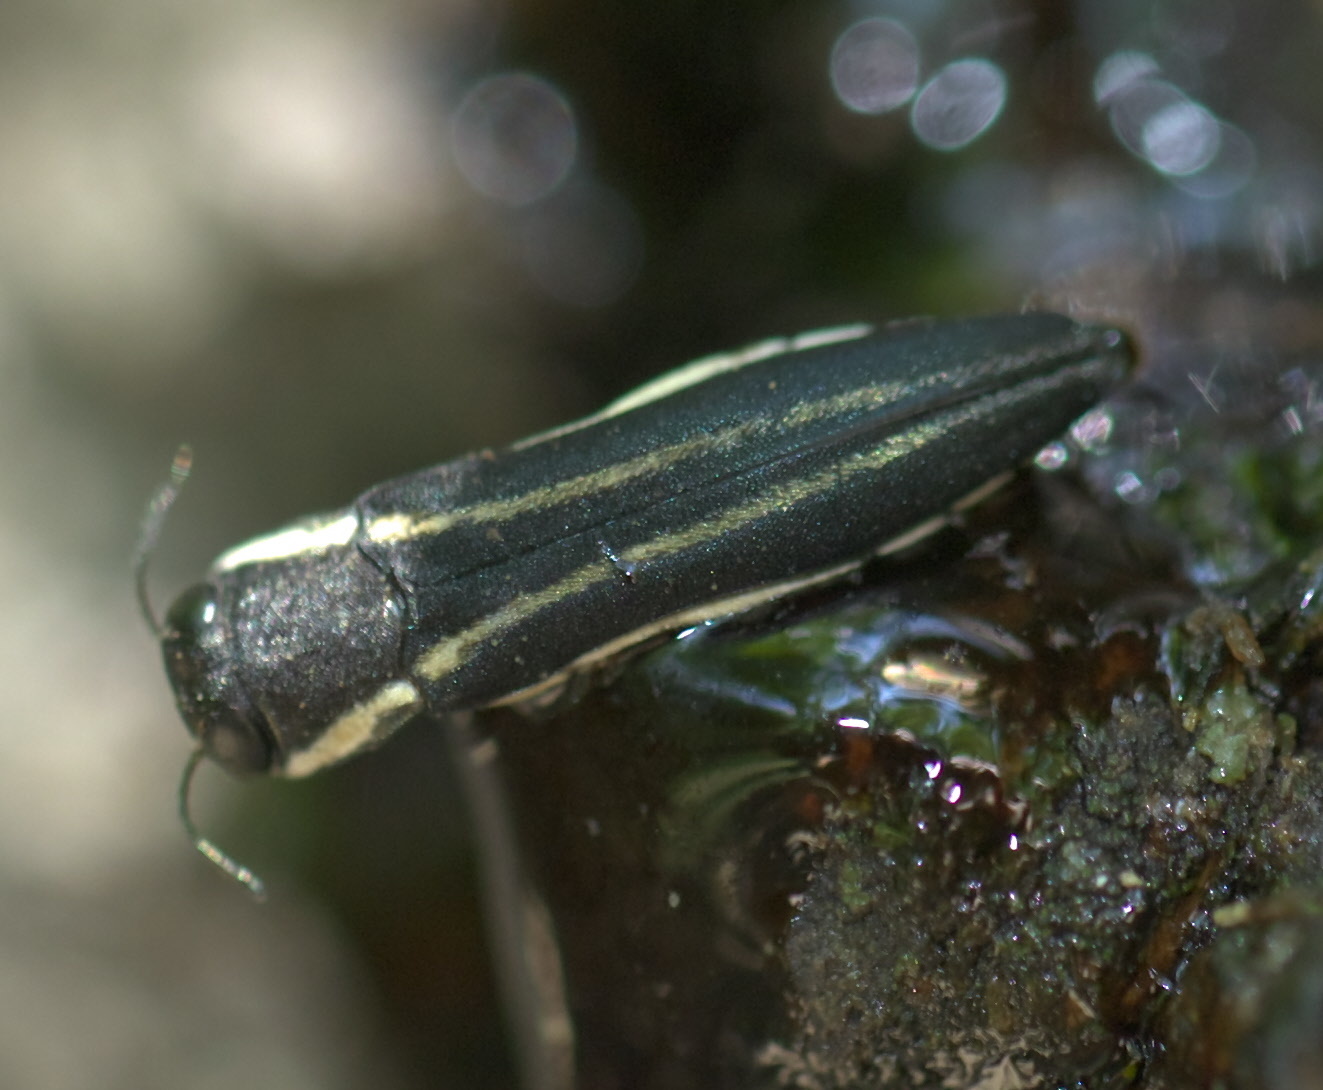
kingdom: Animalia
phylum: Arthropoda
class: Insecta
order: Coleoptera
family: Buprestidae
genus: Agrilus
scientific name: Agrilus bilineatus
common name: Two-lined chestnut borer
